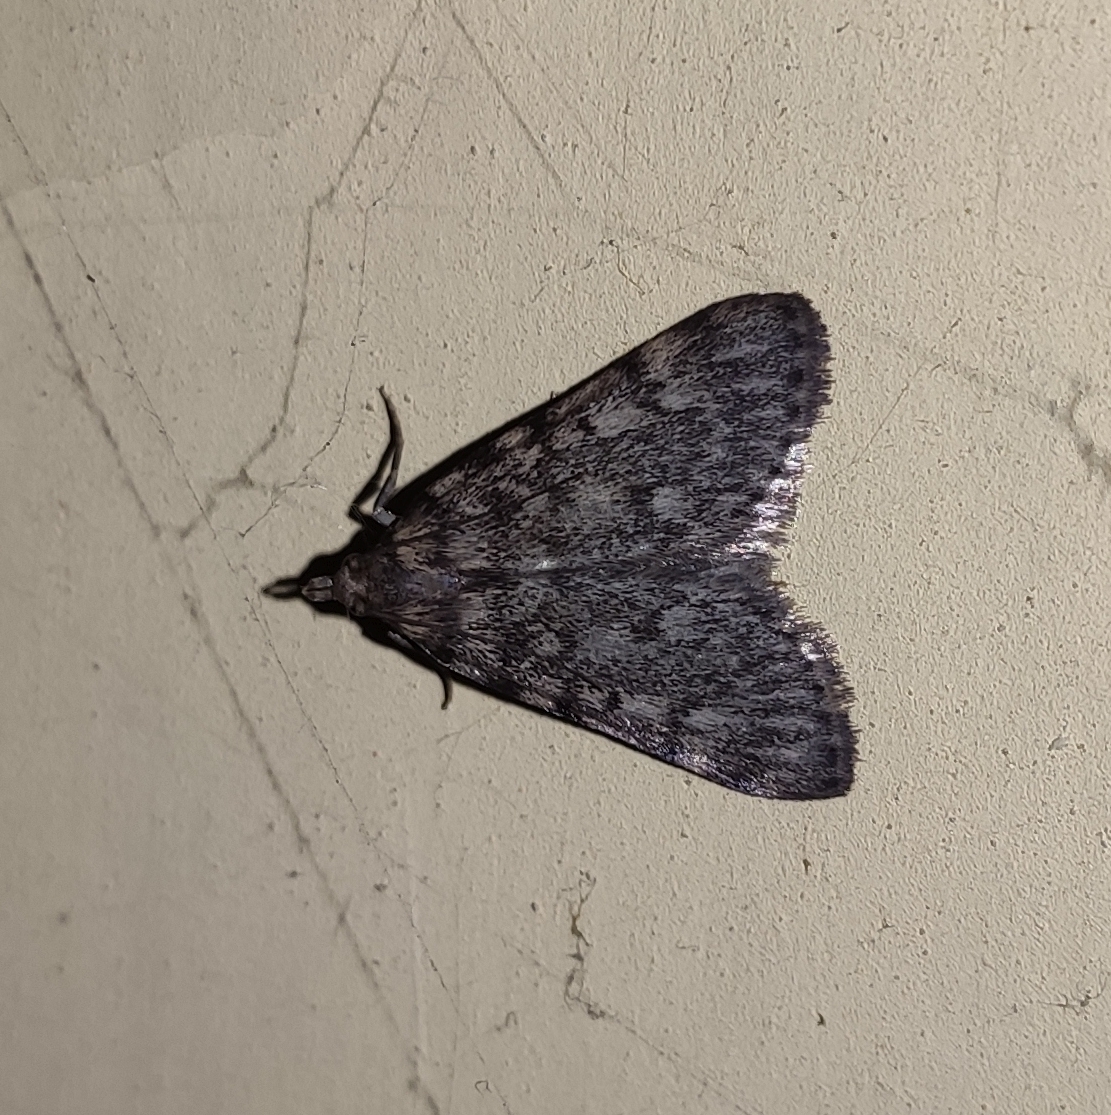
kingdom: Animalia
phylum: Arthropoda
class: Insecta
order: Lepidoptera
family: Pyralidae
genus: Aglossa
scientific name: Aglossa pinguinalis
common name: Large tabby
